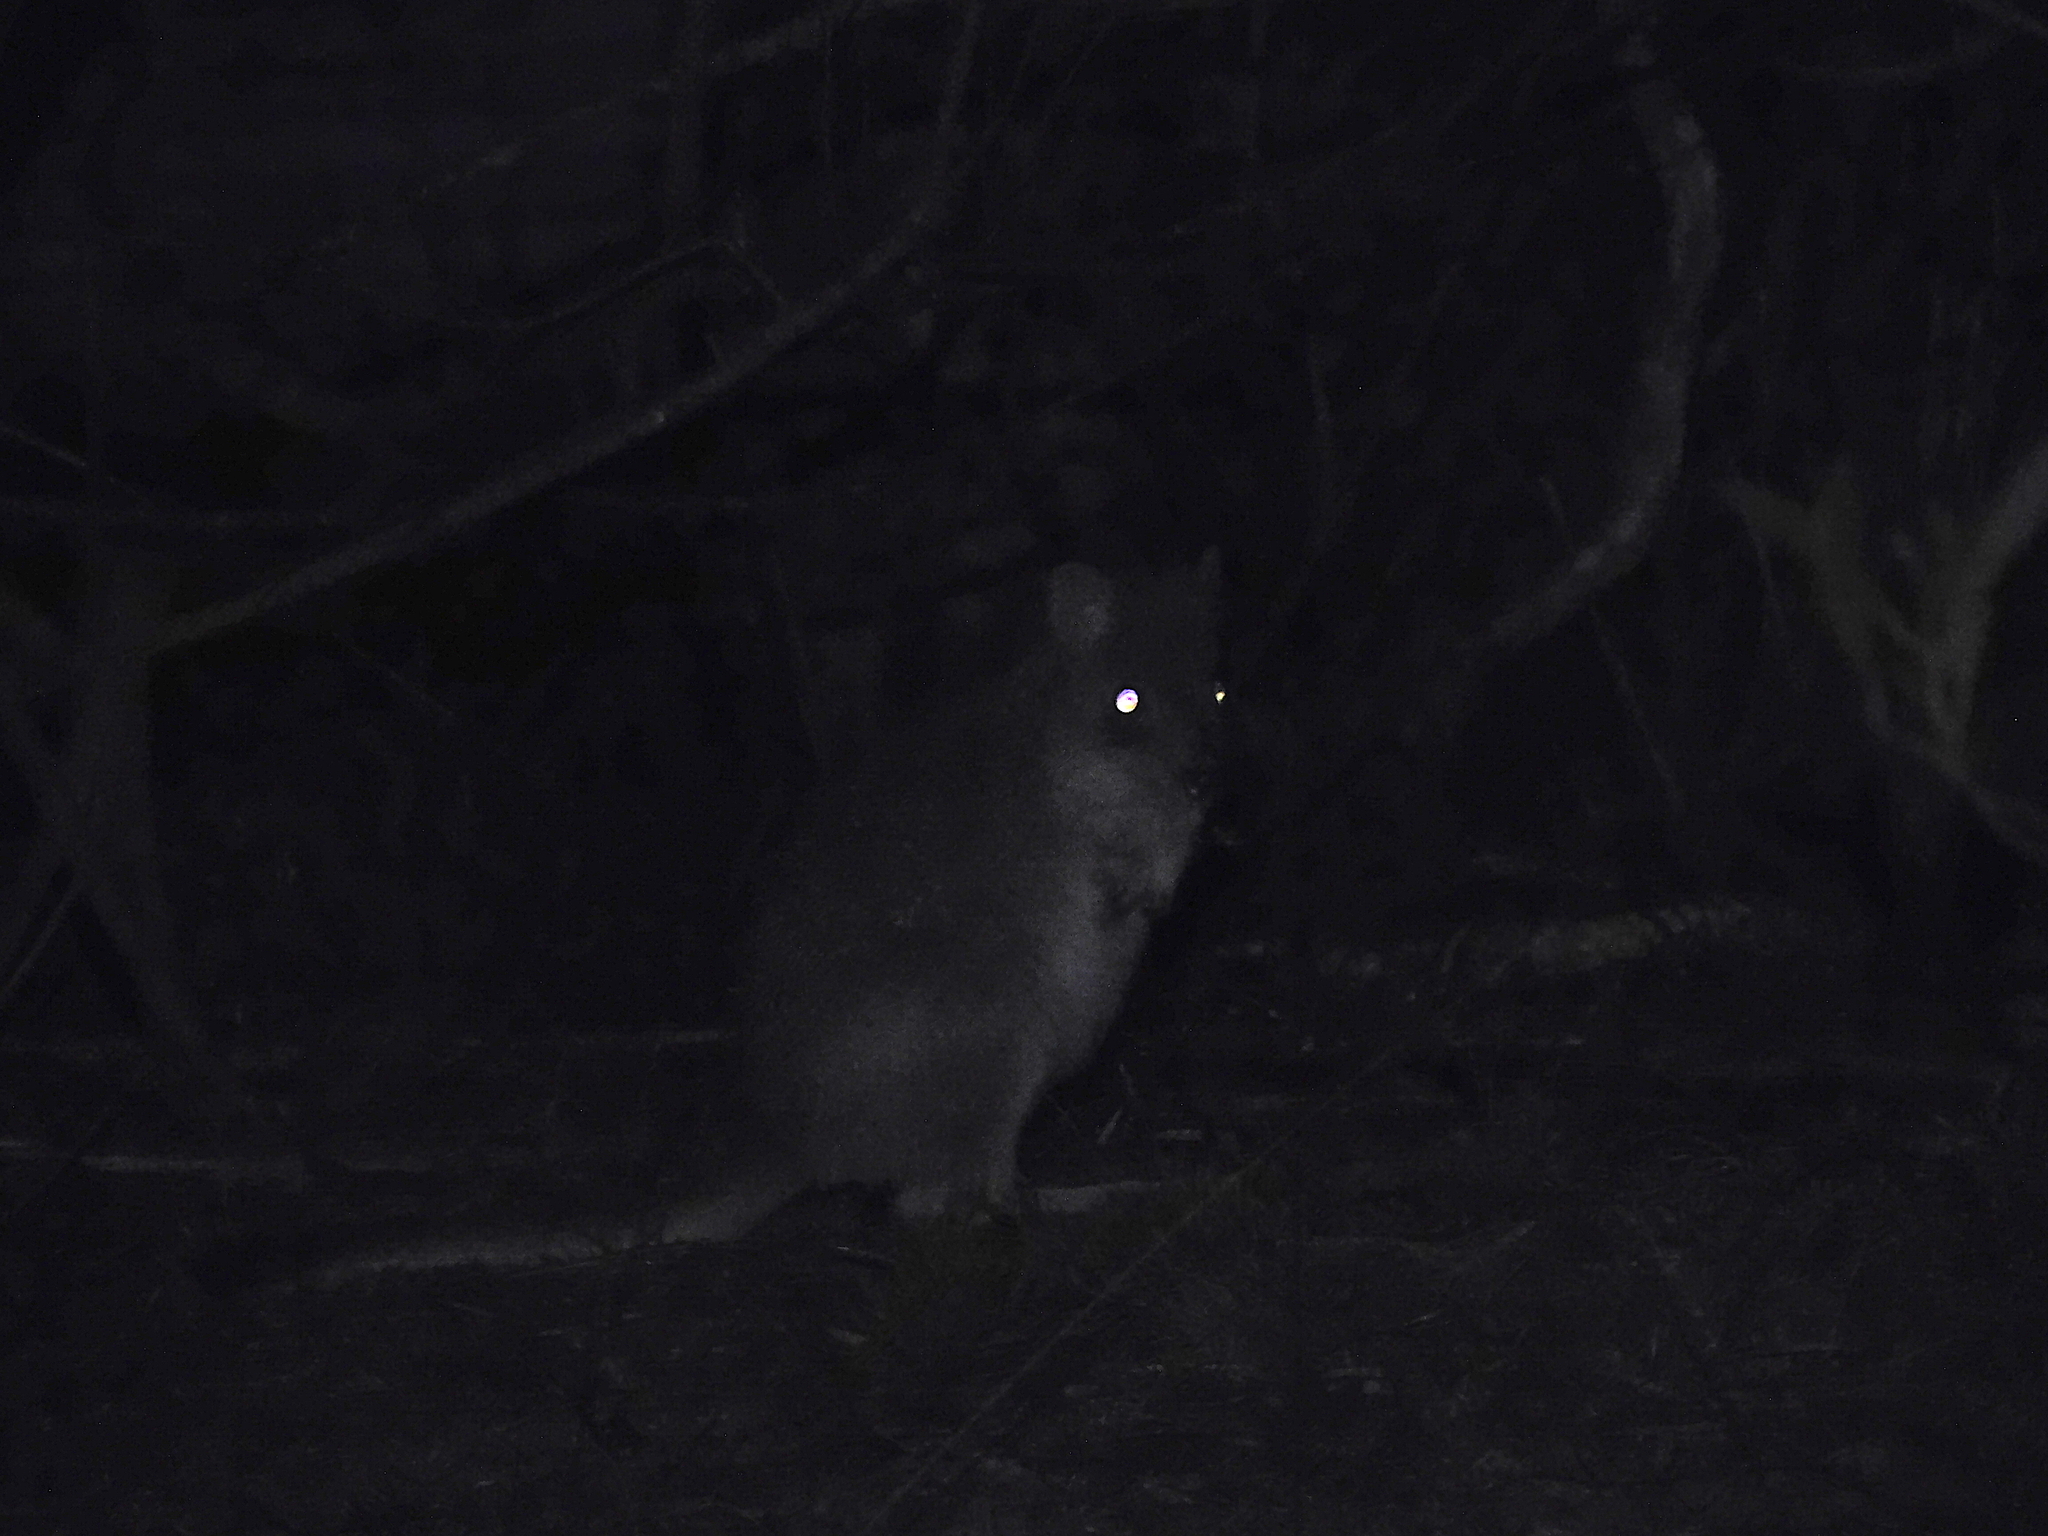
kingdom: Animalia
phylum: Chordata
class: Mammalia
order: Diprotodontia
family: Potoroidae
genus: Bettongia
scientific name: Bettongia gaimardi
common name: Eastern bettong
